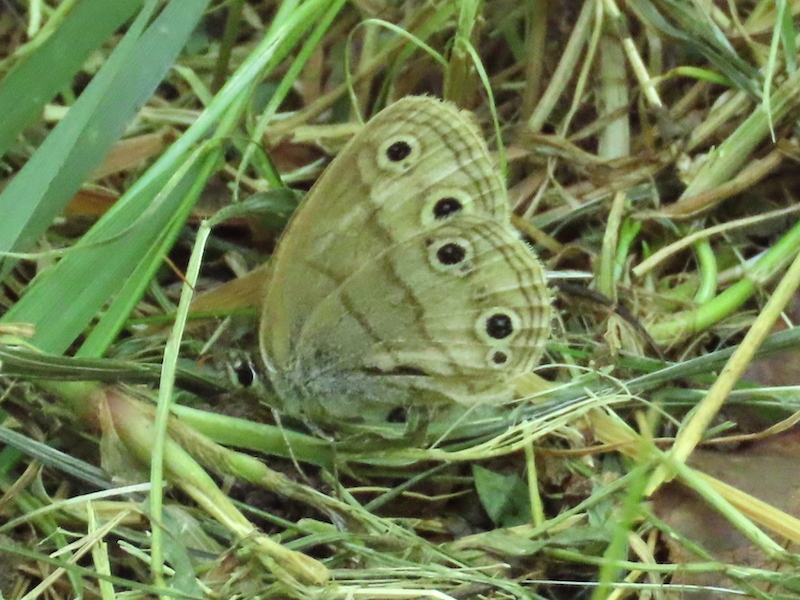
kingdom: Animalia
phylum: Arthropoda
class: Insecta
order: Lepidoptera
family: Nymphalidae
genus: Euptychia
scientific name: Euptychia cymela
